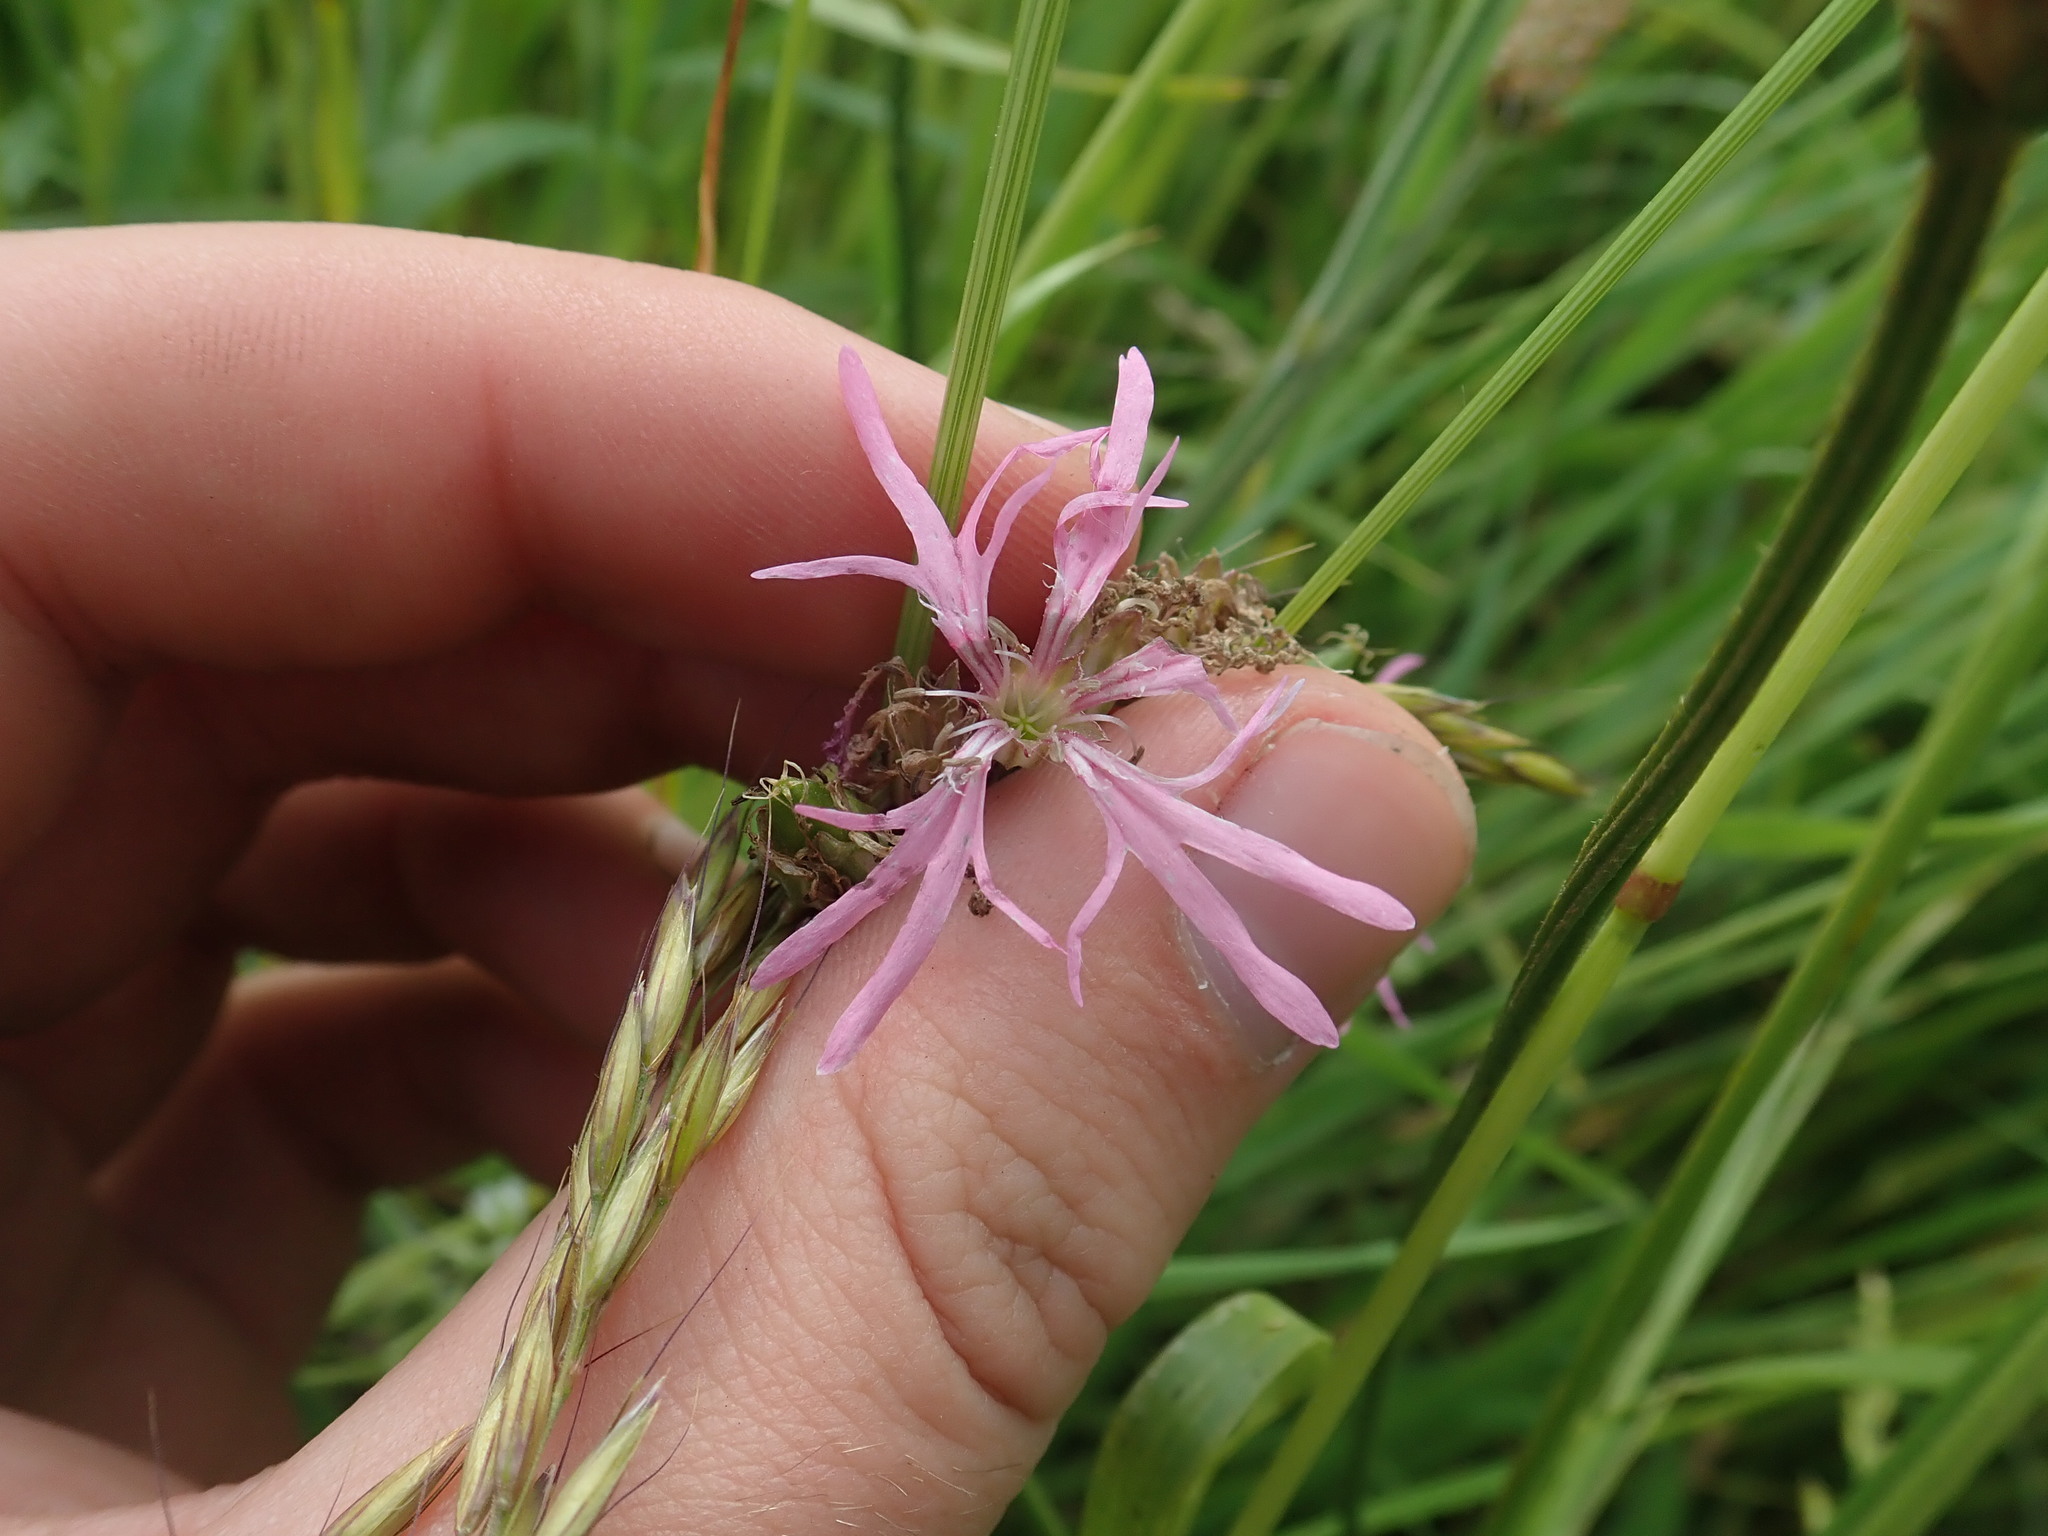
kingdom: Plantae
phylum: Tracheophyta
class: Magnoliopsida
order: Caryophyllales
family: Caryophyllaceae
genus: Silene
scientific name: Silene flos-cuculi
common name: Ragged-robin
